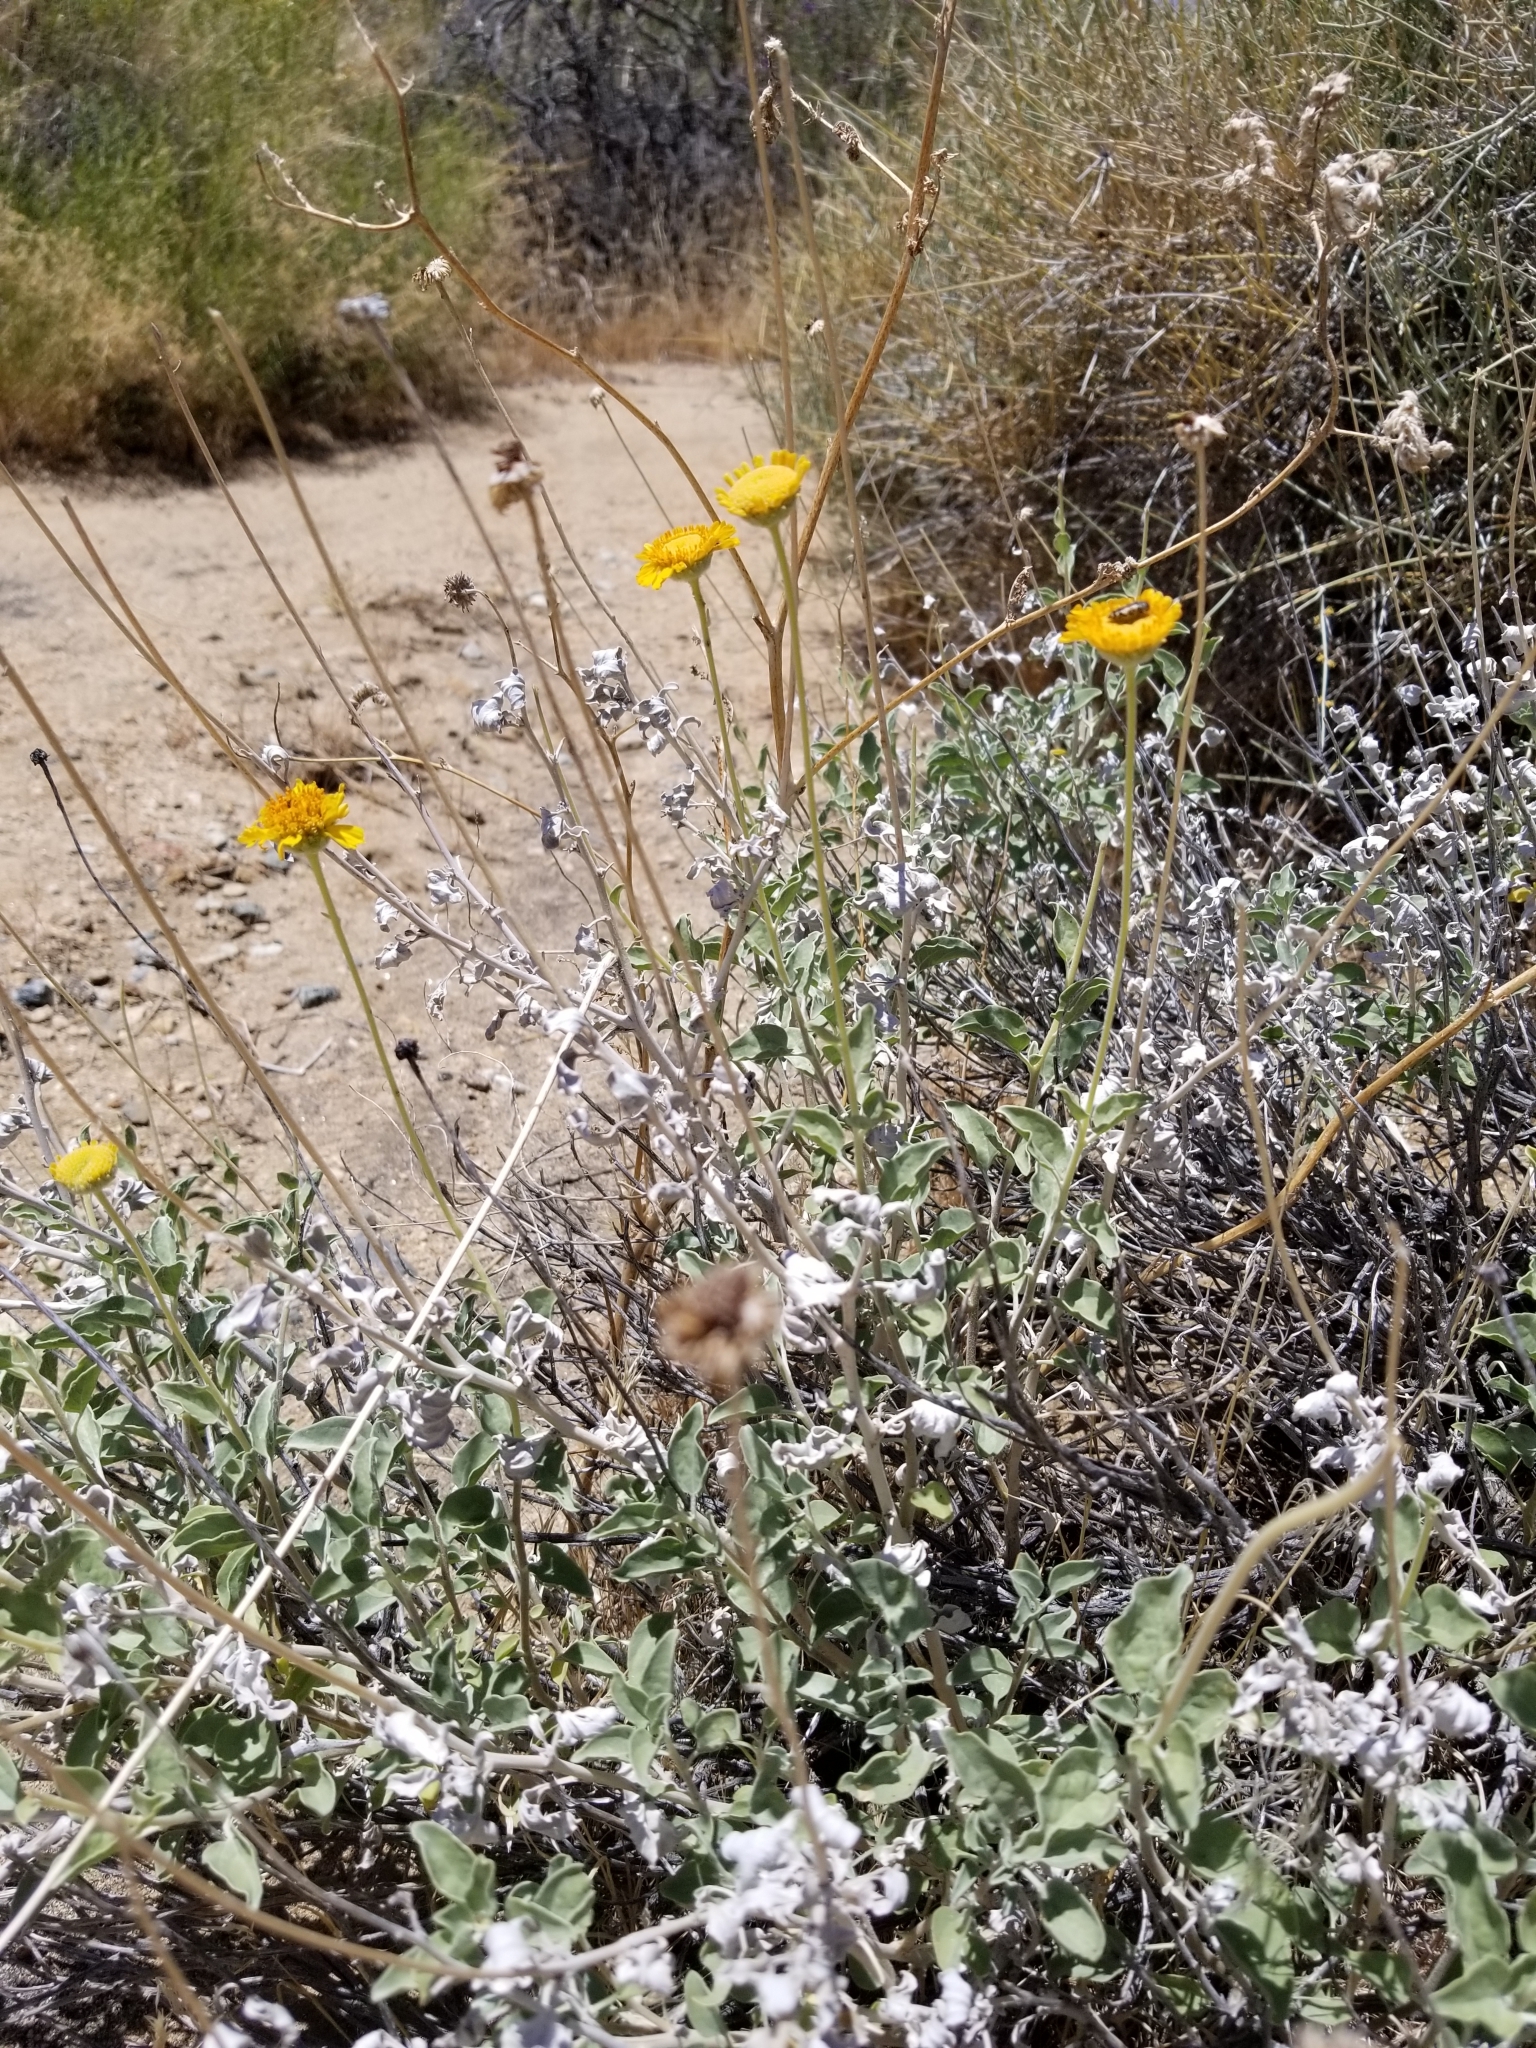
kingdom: Plantae
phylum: Tracheophyta
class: Magnoliopsida
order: Asterales
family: Asteraceae
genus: Encelia
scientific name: Encelia actoni
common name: Acton encelia
